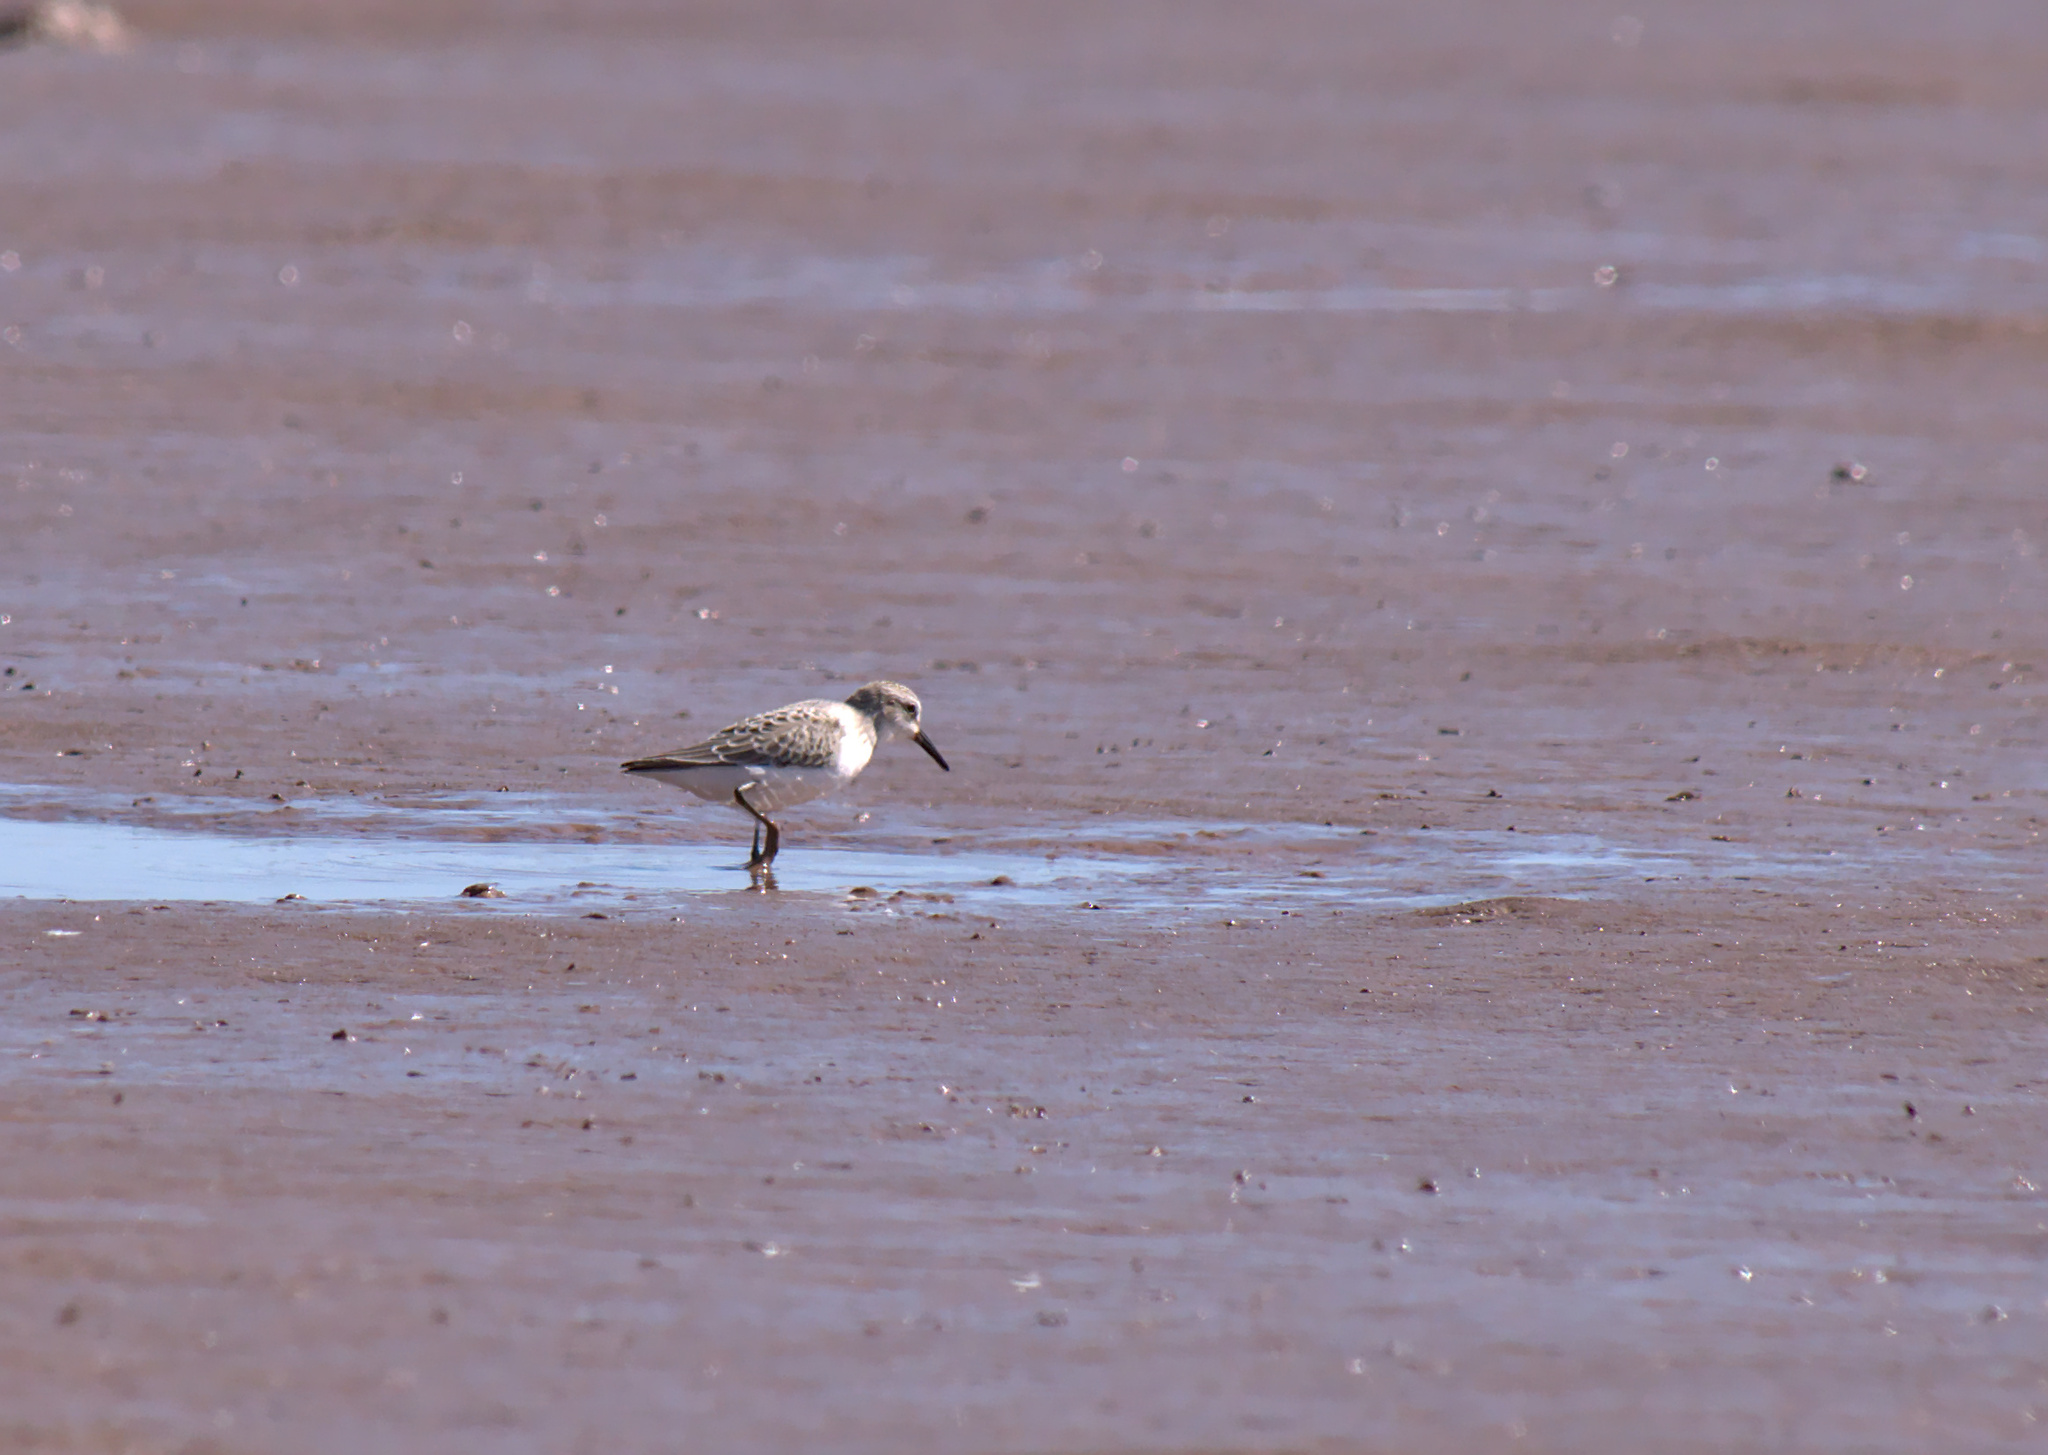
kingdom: Animalia
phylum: Chordata
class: Aves
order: Charadriiformes
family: Scolopacidae
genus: Calidris
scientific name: Calidris alba
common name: Sanderling
